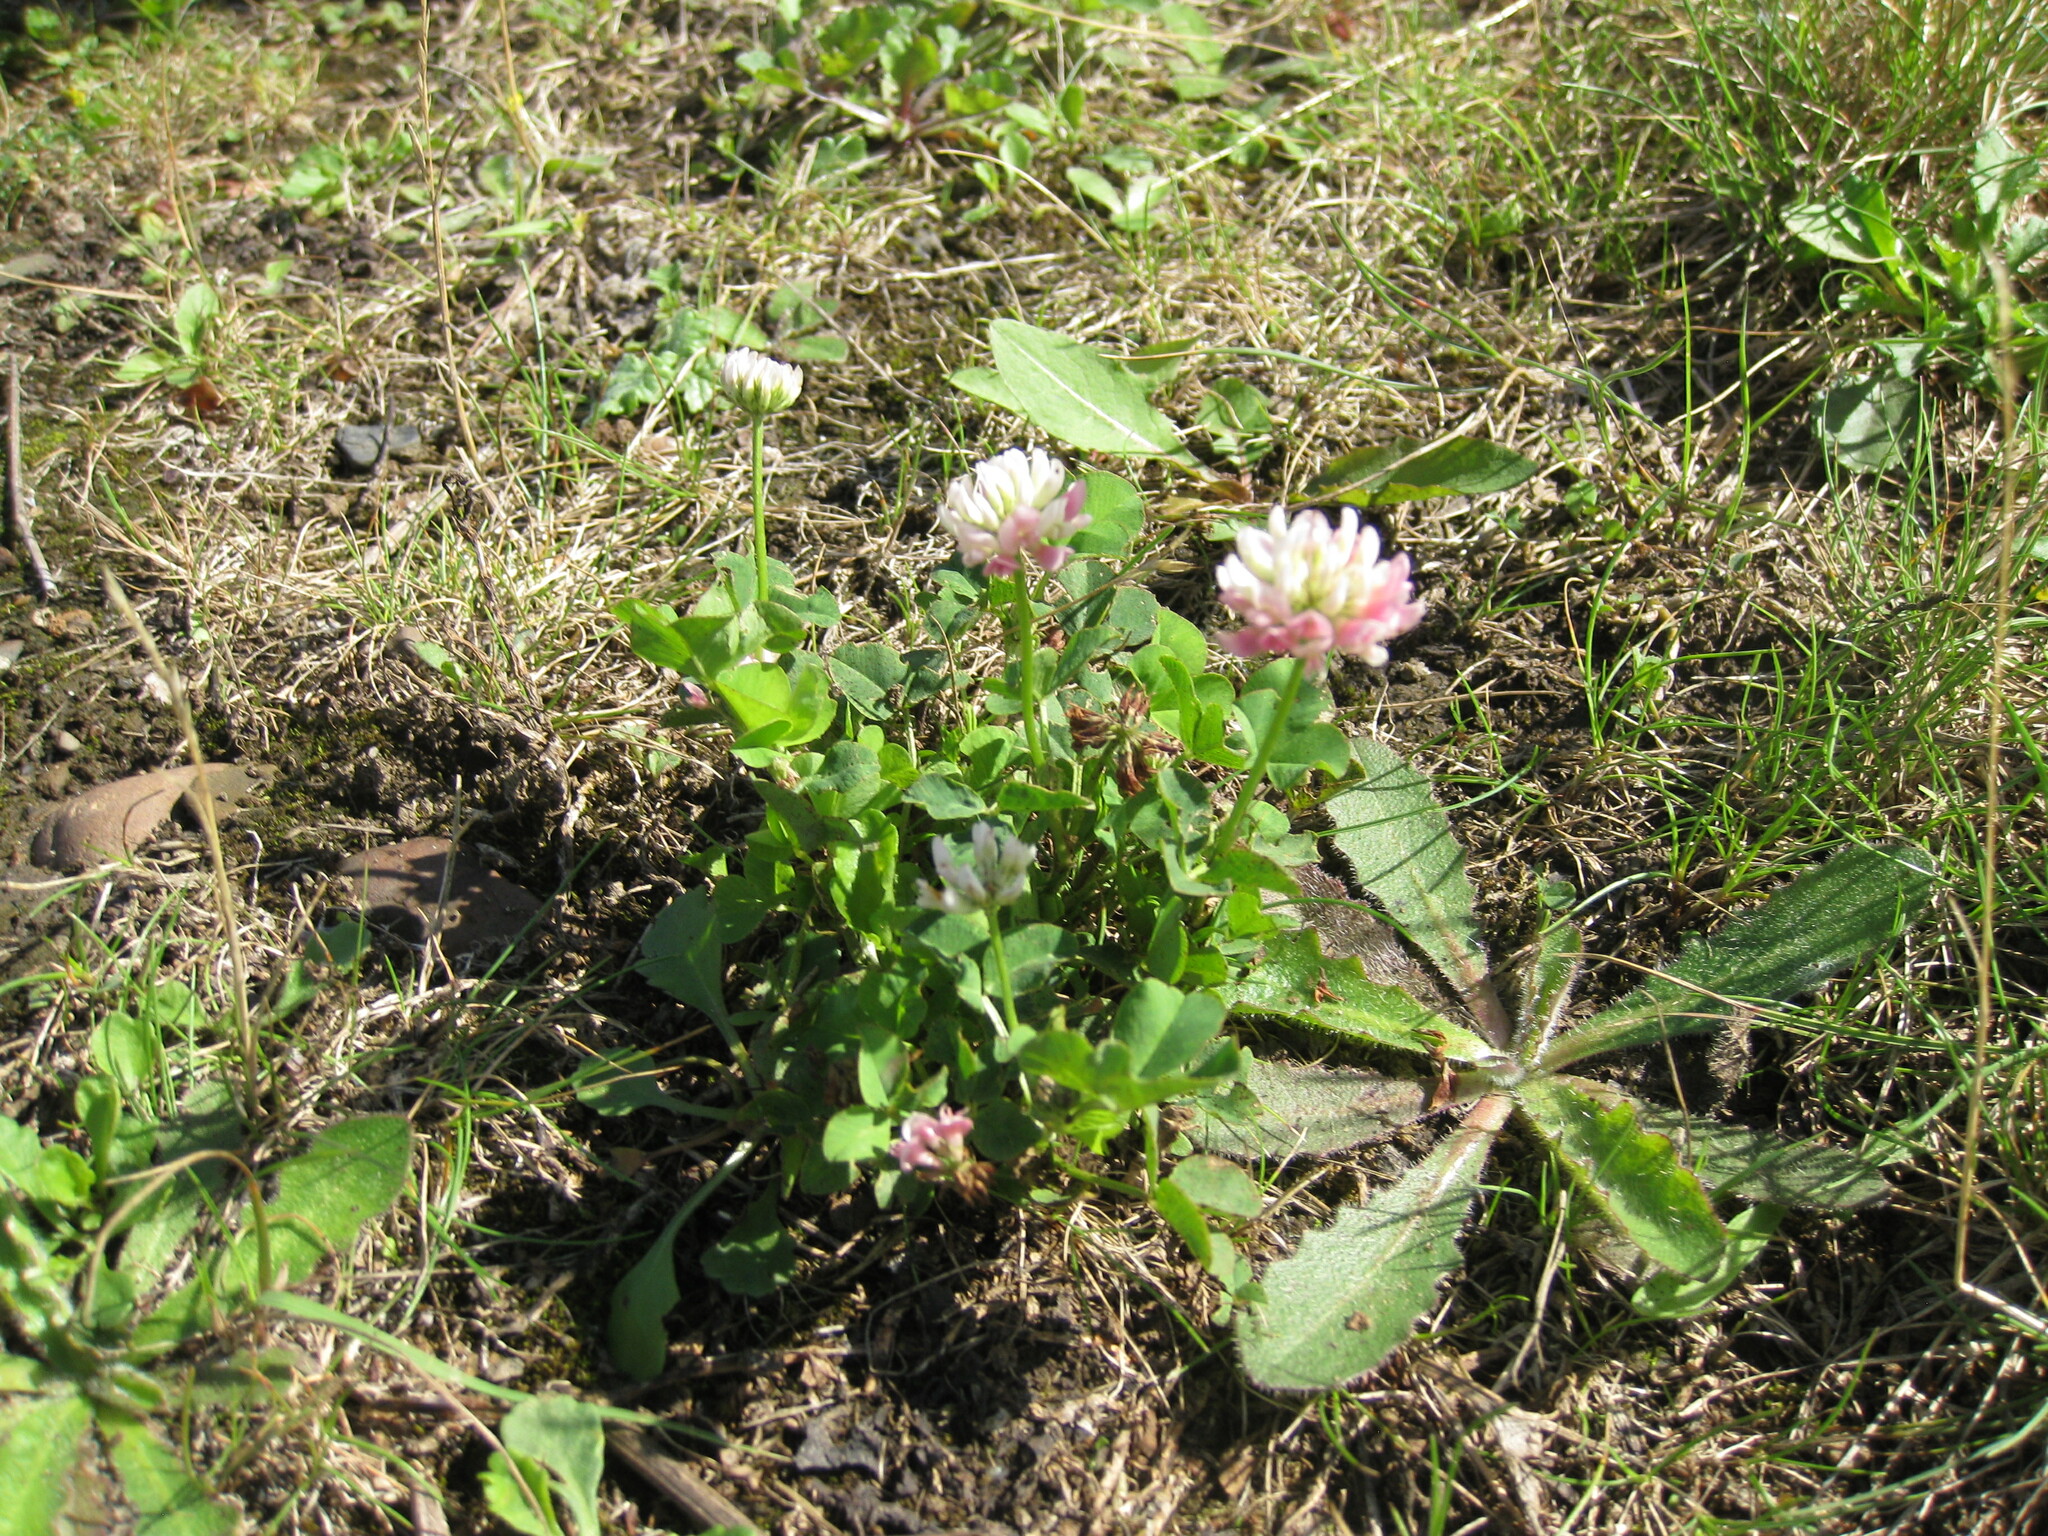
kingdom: Plantae
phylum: Tracheophyta
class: Magnoliopsida
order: Fabales
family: Fabaceae
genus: Trifolium
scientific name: Trifolium hybridum
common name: Alsike clover
